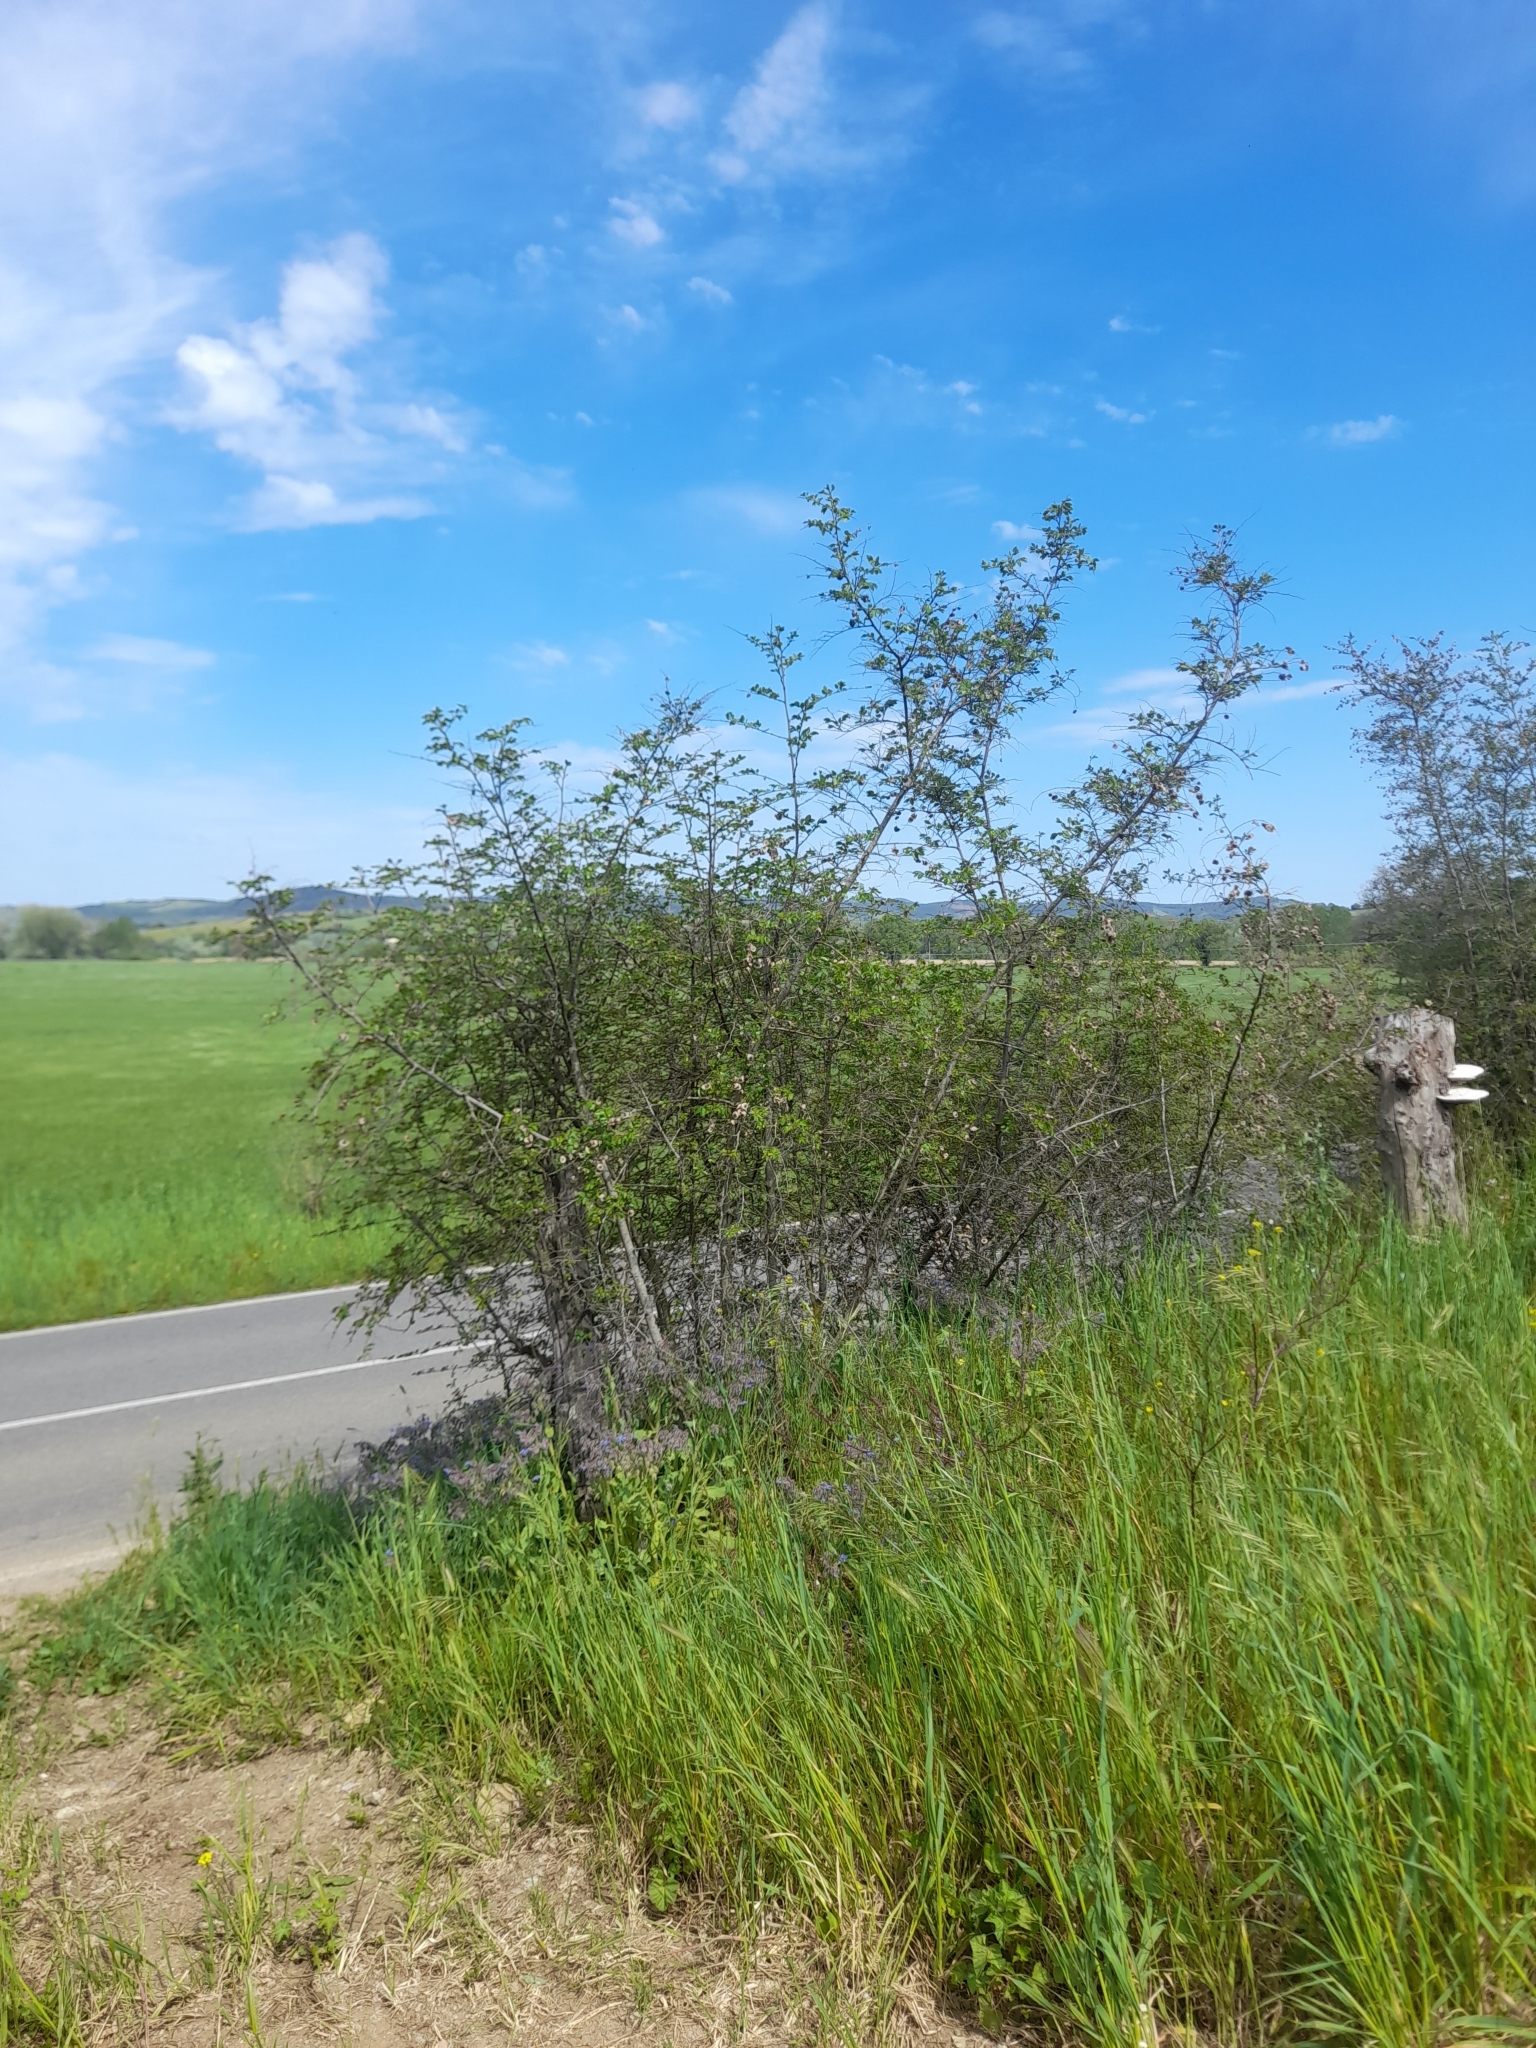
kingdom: Plantae
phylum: Tracheophyta
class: Magnoliopsida
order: Rosales
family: Rhamnaceae
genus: Paliurus
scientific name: Paliurus spina-christi
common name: Jeruselem thorn
